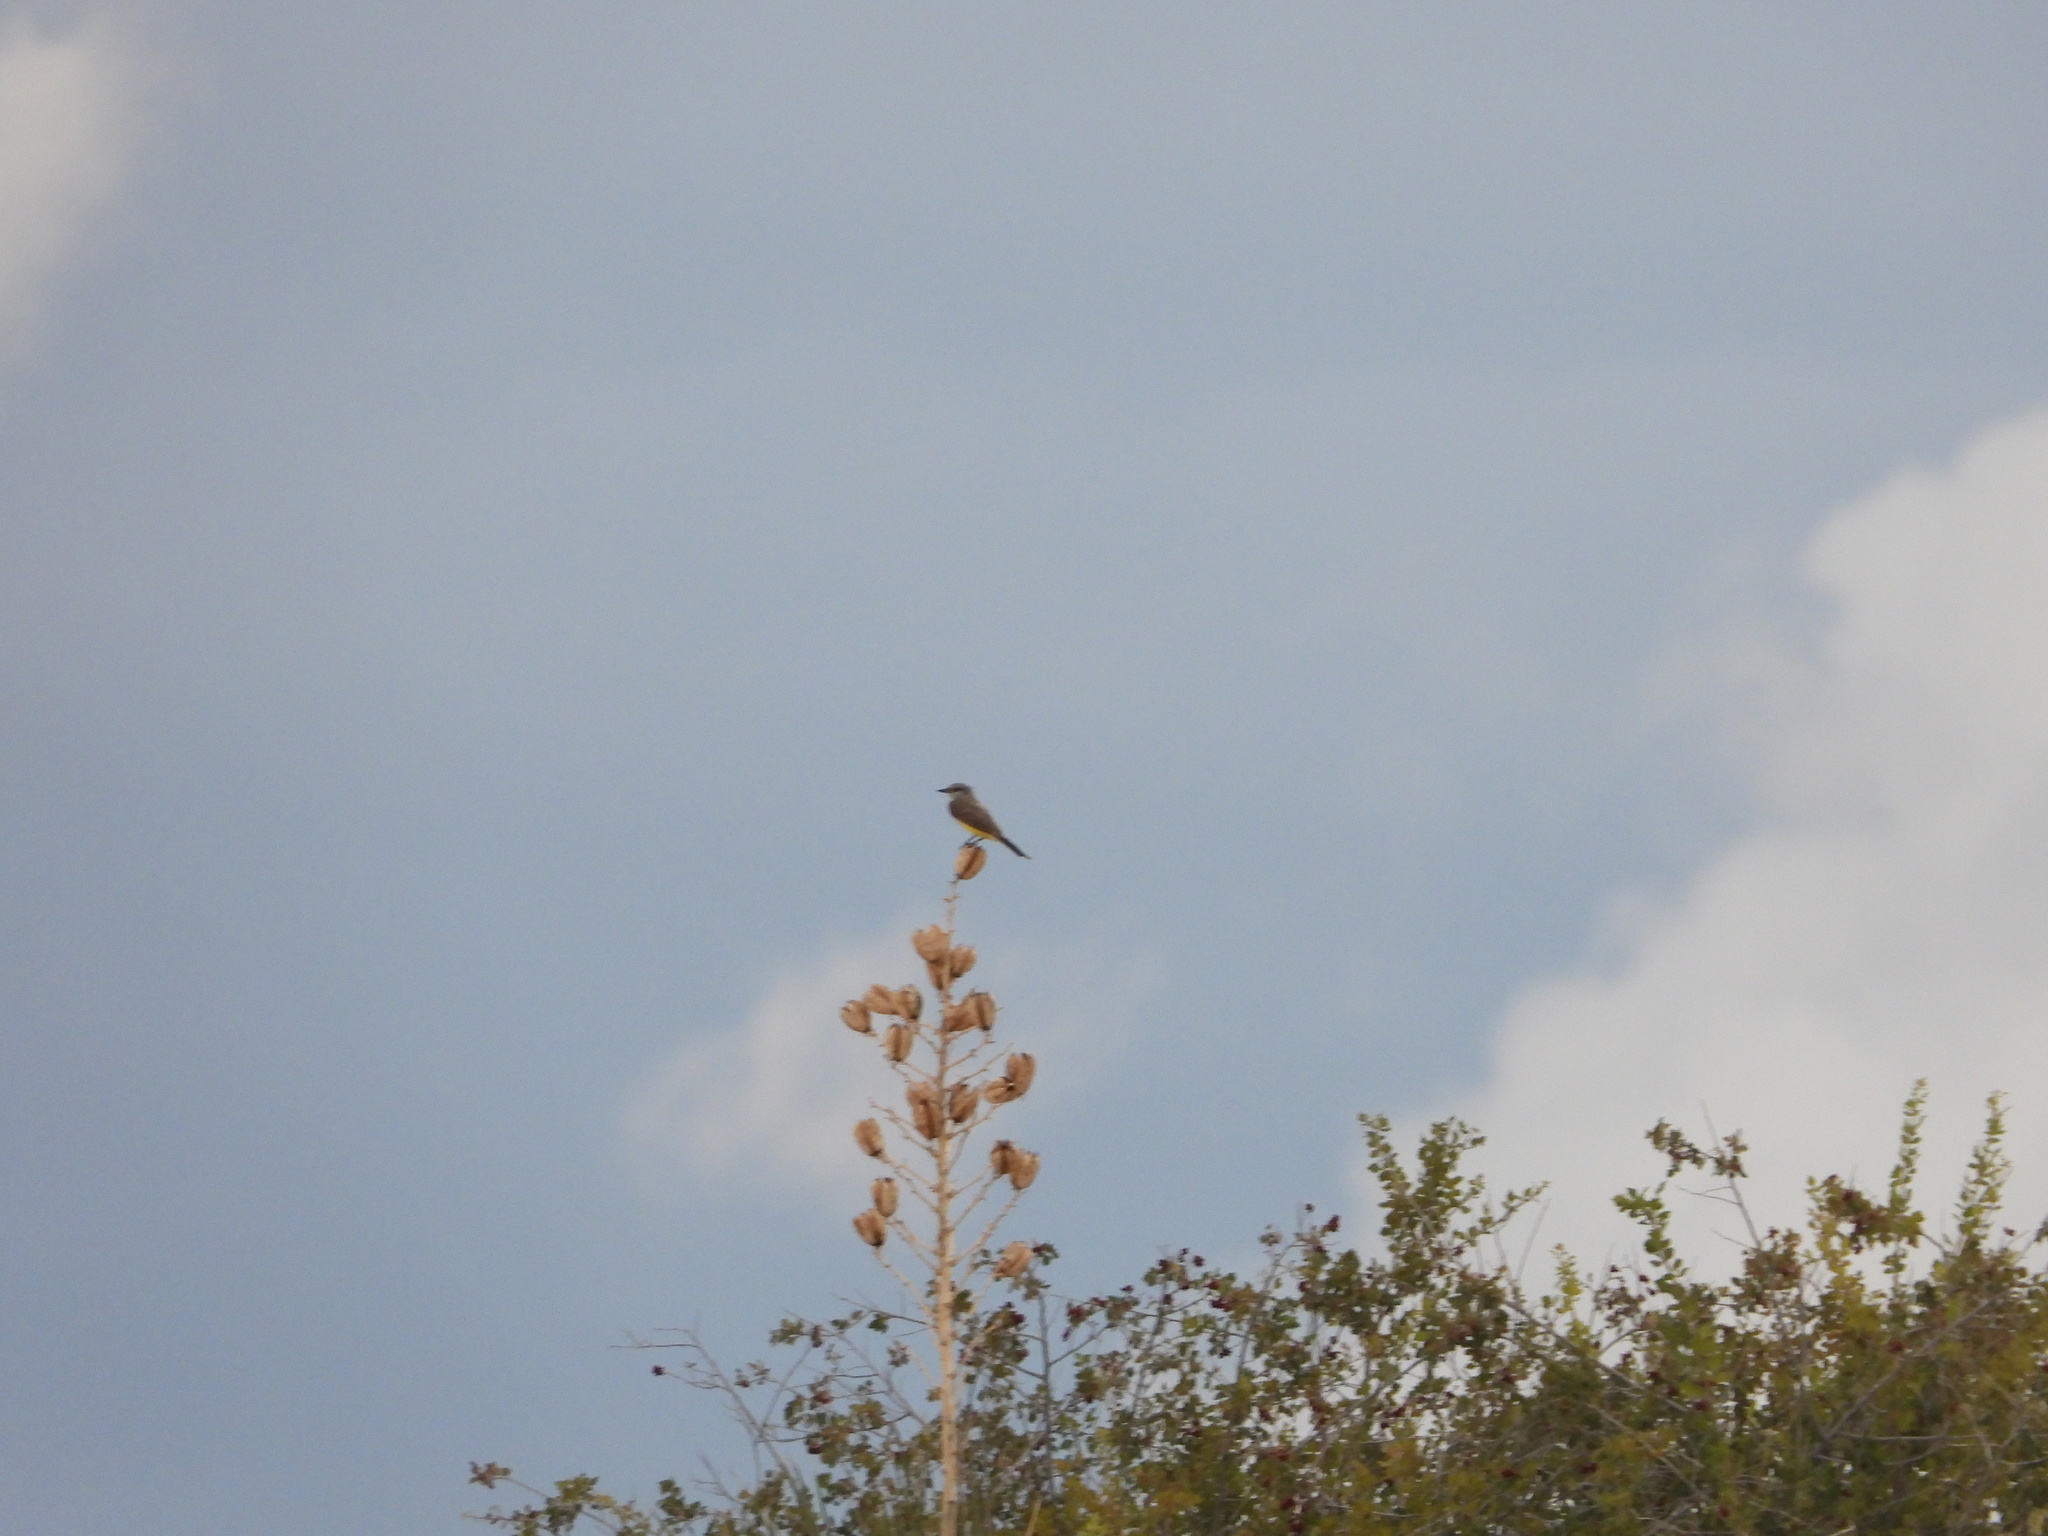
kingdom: Animalia
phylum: Chordata
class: Aves
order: Passeriformes
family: Tyrannidae
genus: Tyrannus
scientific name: Tyrannus verticalis
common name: Western kingbird
